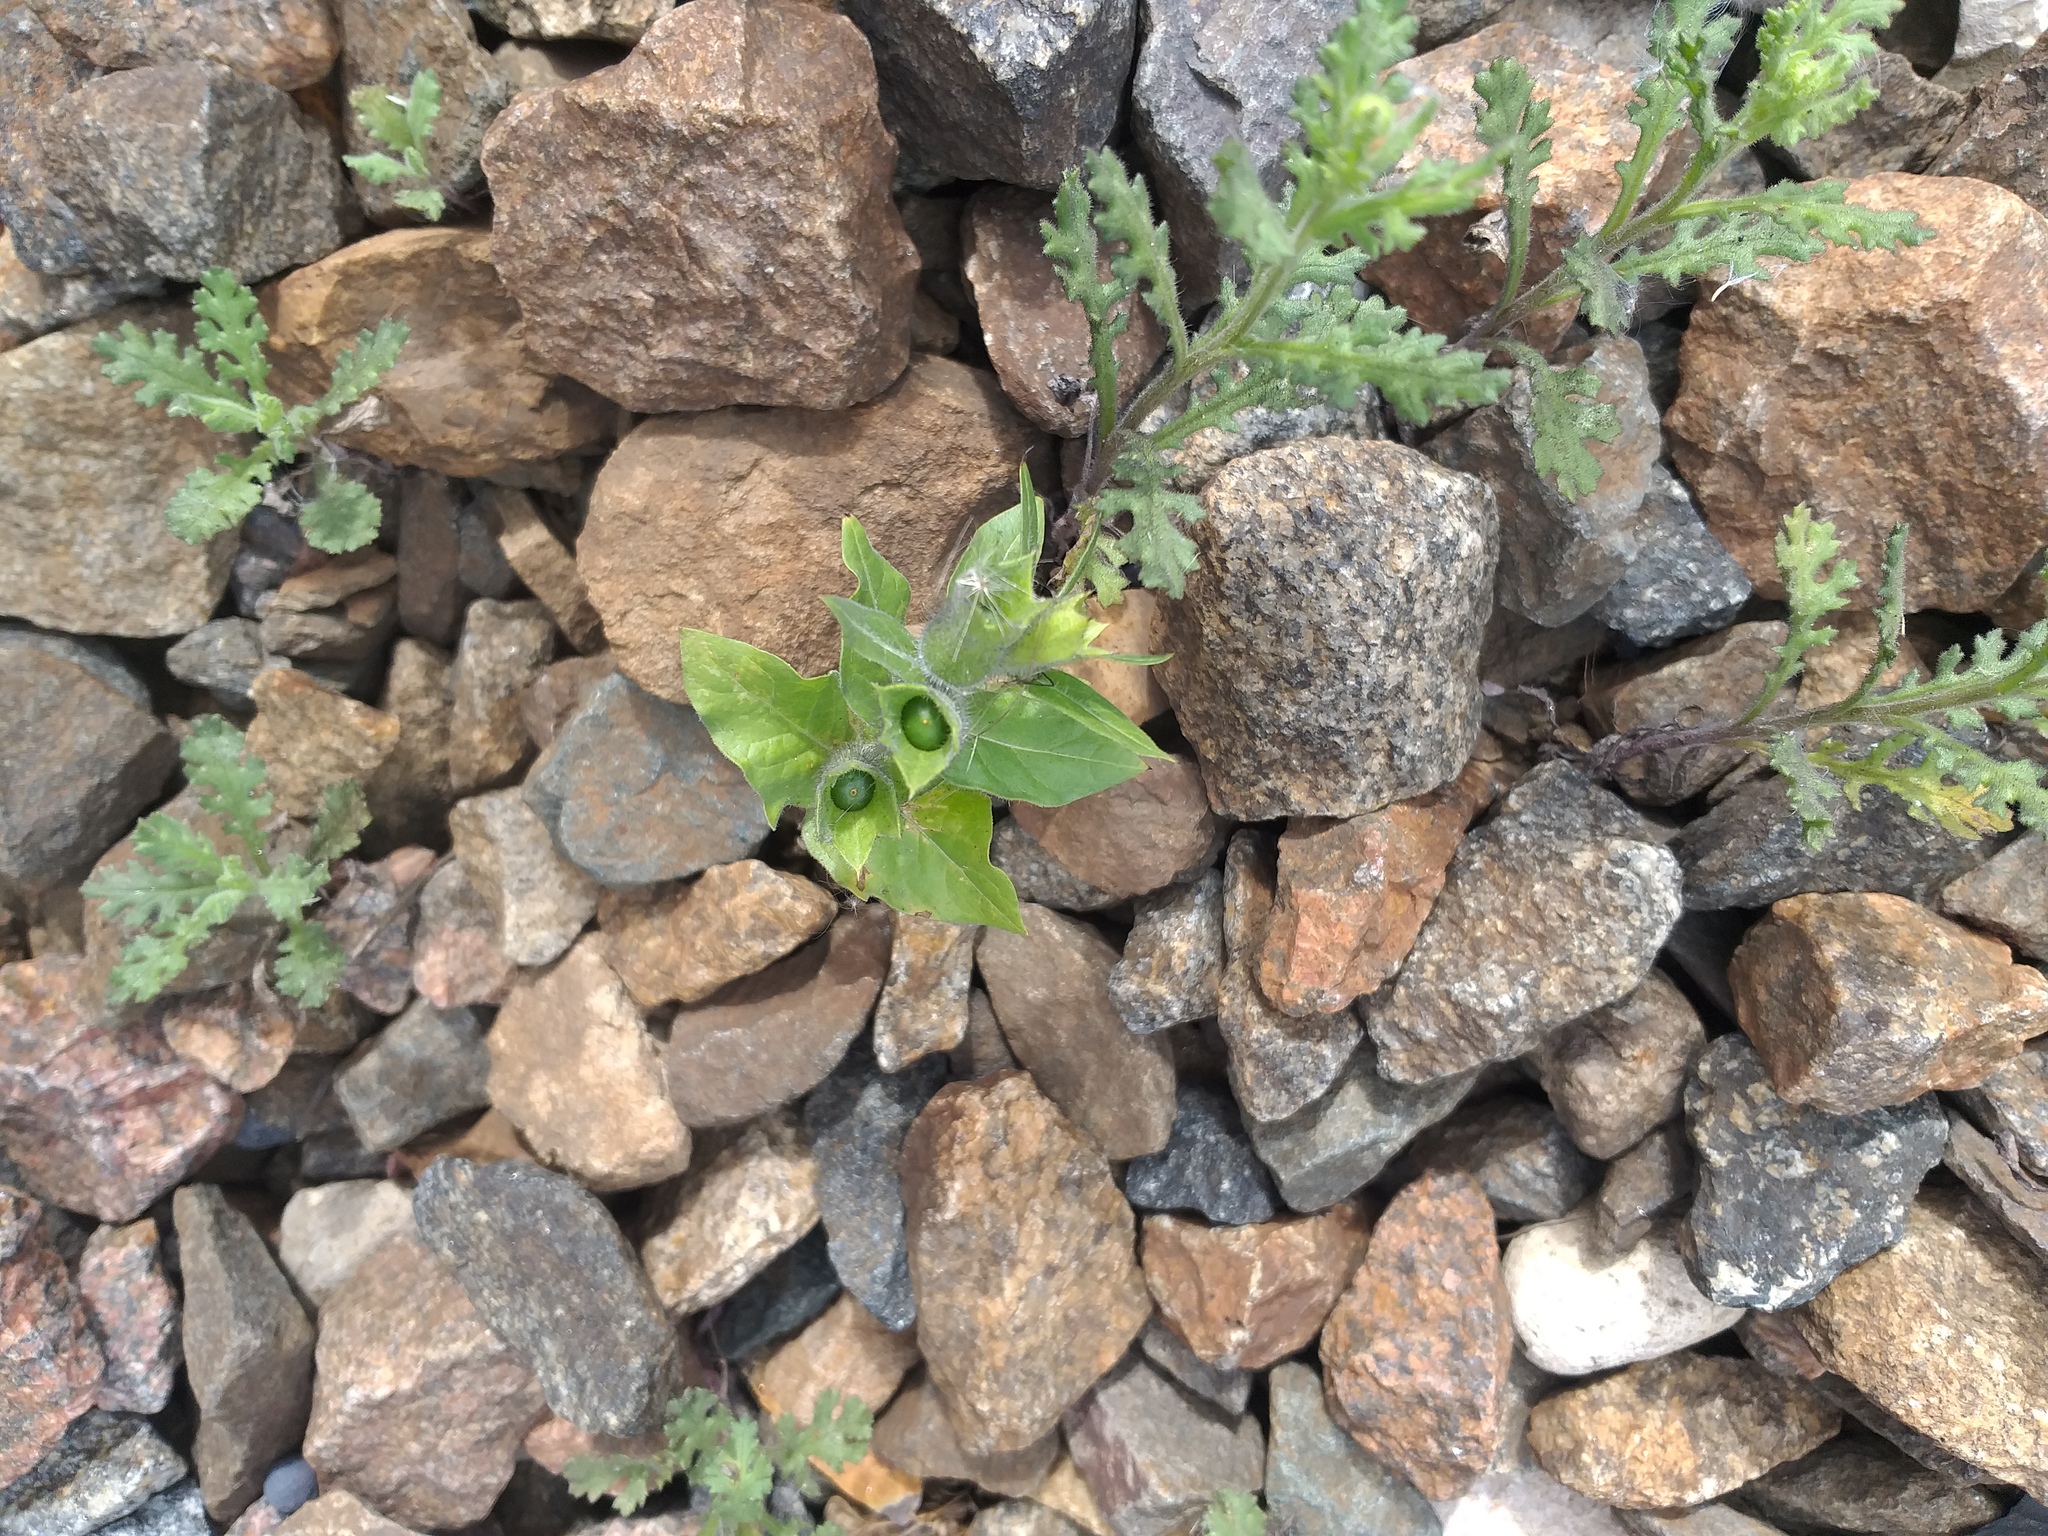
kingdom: Plantae
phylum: Tracheophyta
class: Magnoliopsida
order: Solanales
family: Solanaceae
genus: Hyoscyamus
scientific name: Hyoscyamus niger
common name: Henbane
